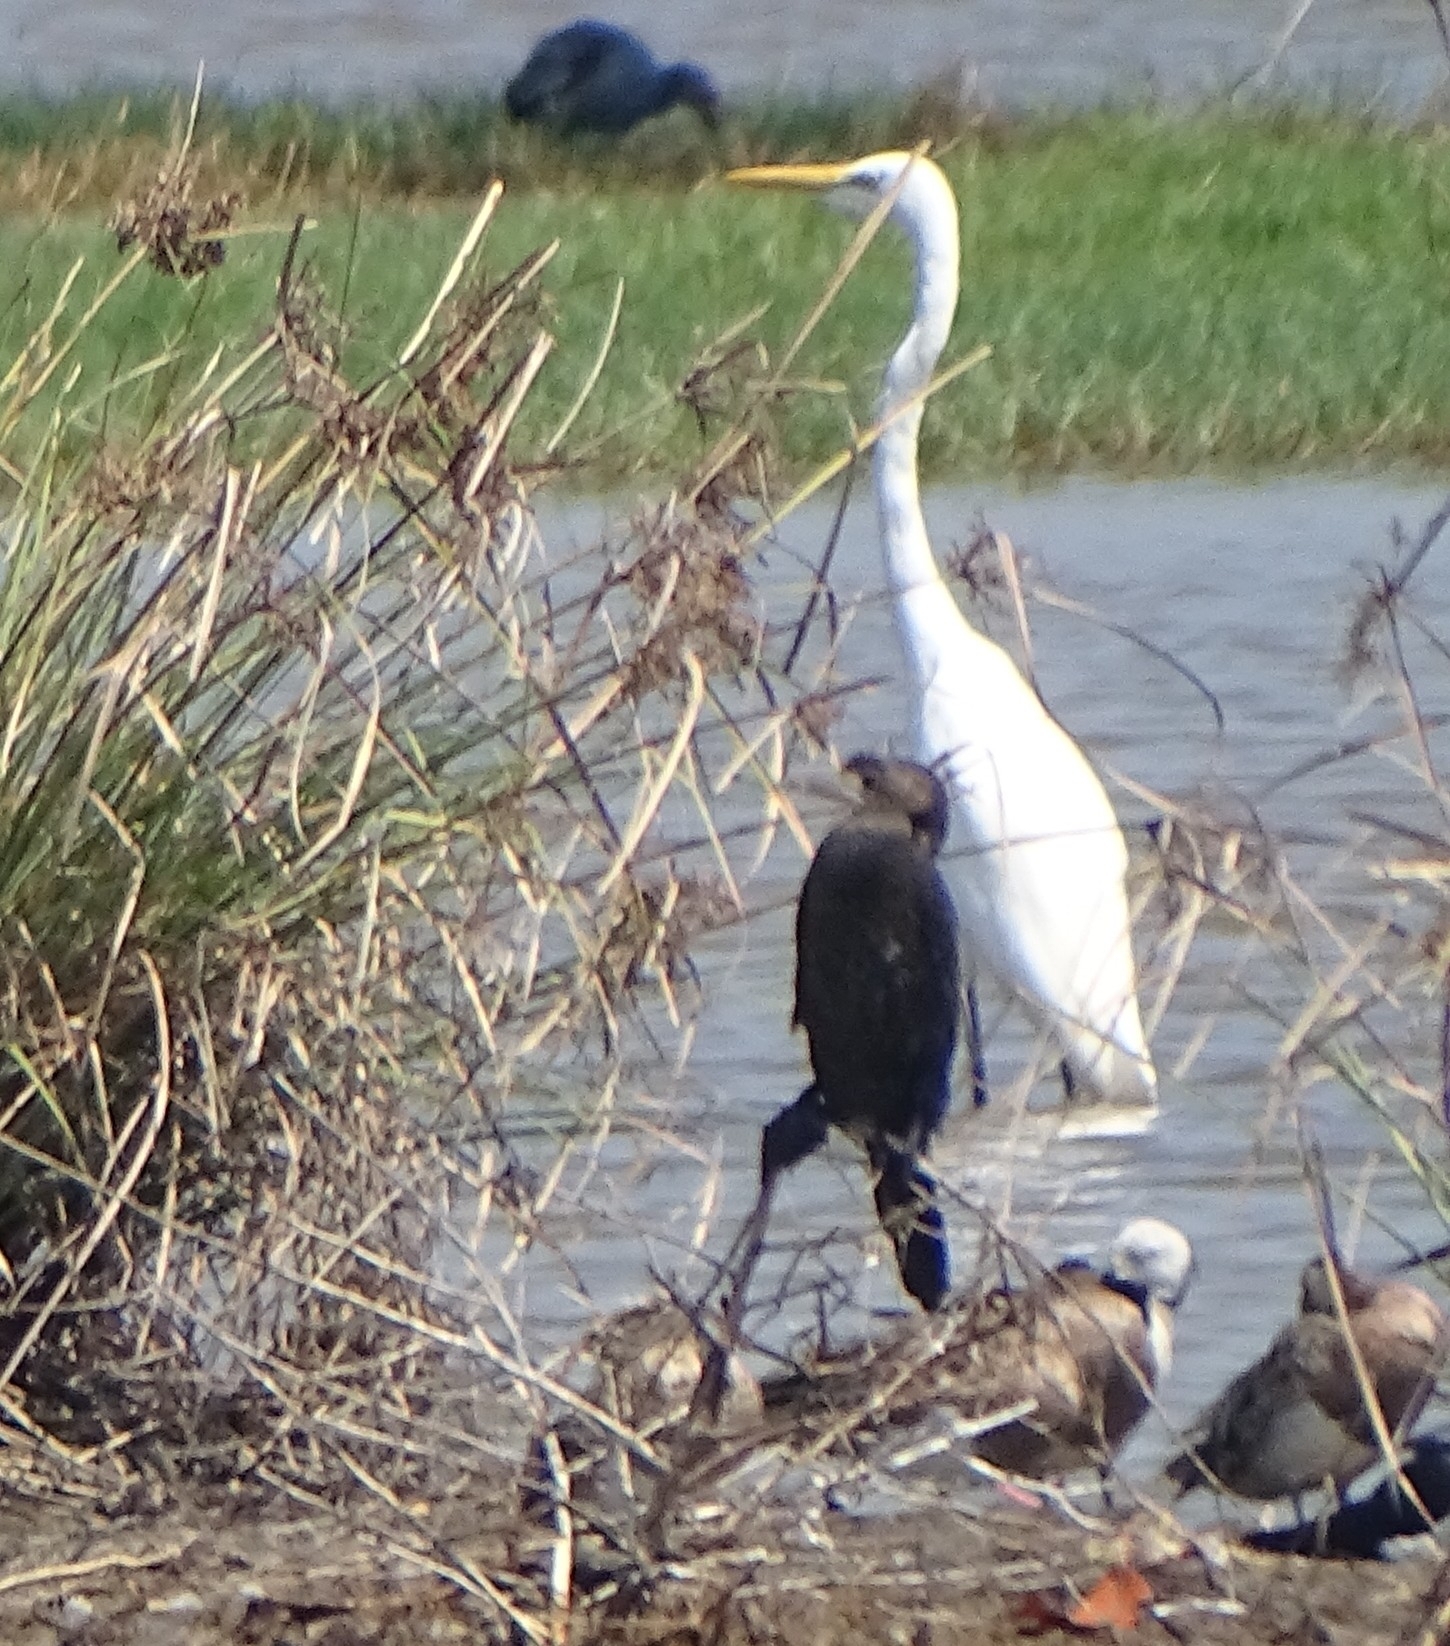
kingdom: Animalia
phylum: Chordata
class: Aves
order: Pelecaniformes
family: Ardeidae
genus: Ardea
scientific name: Ardea alba
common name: Great egret
